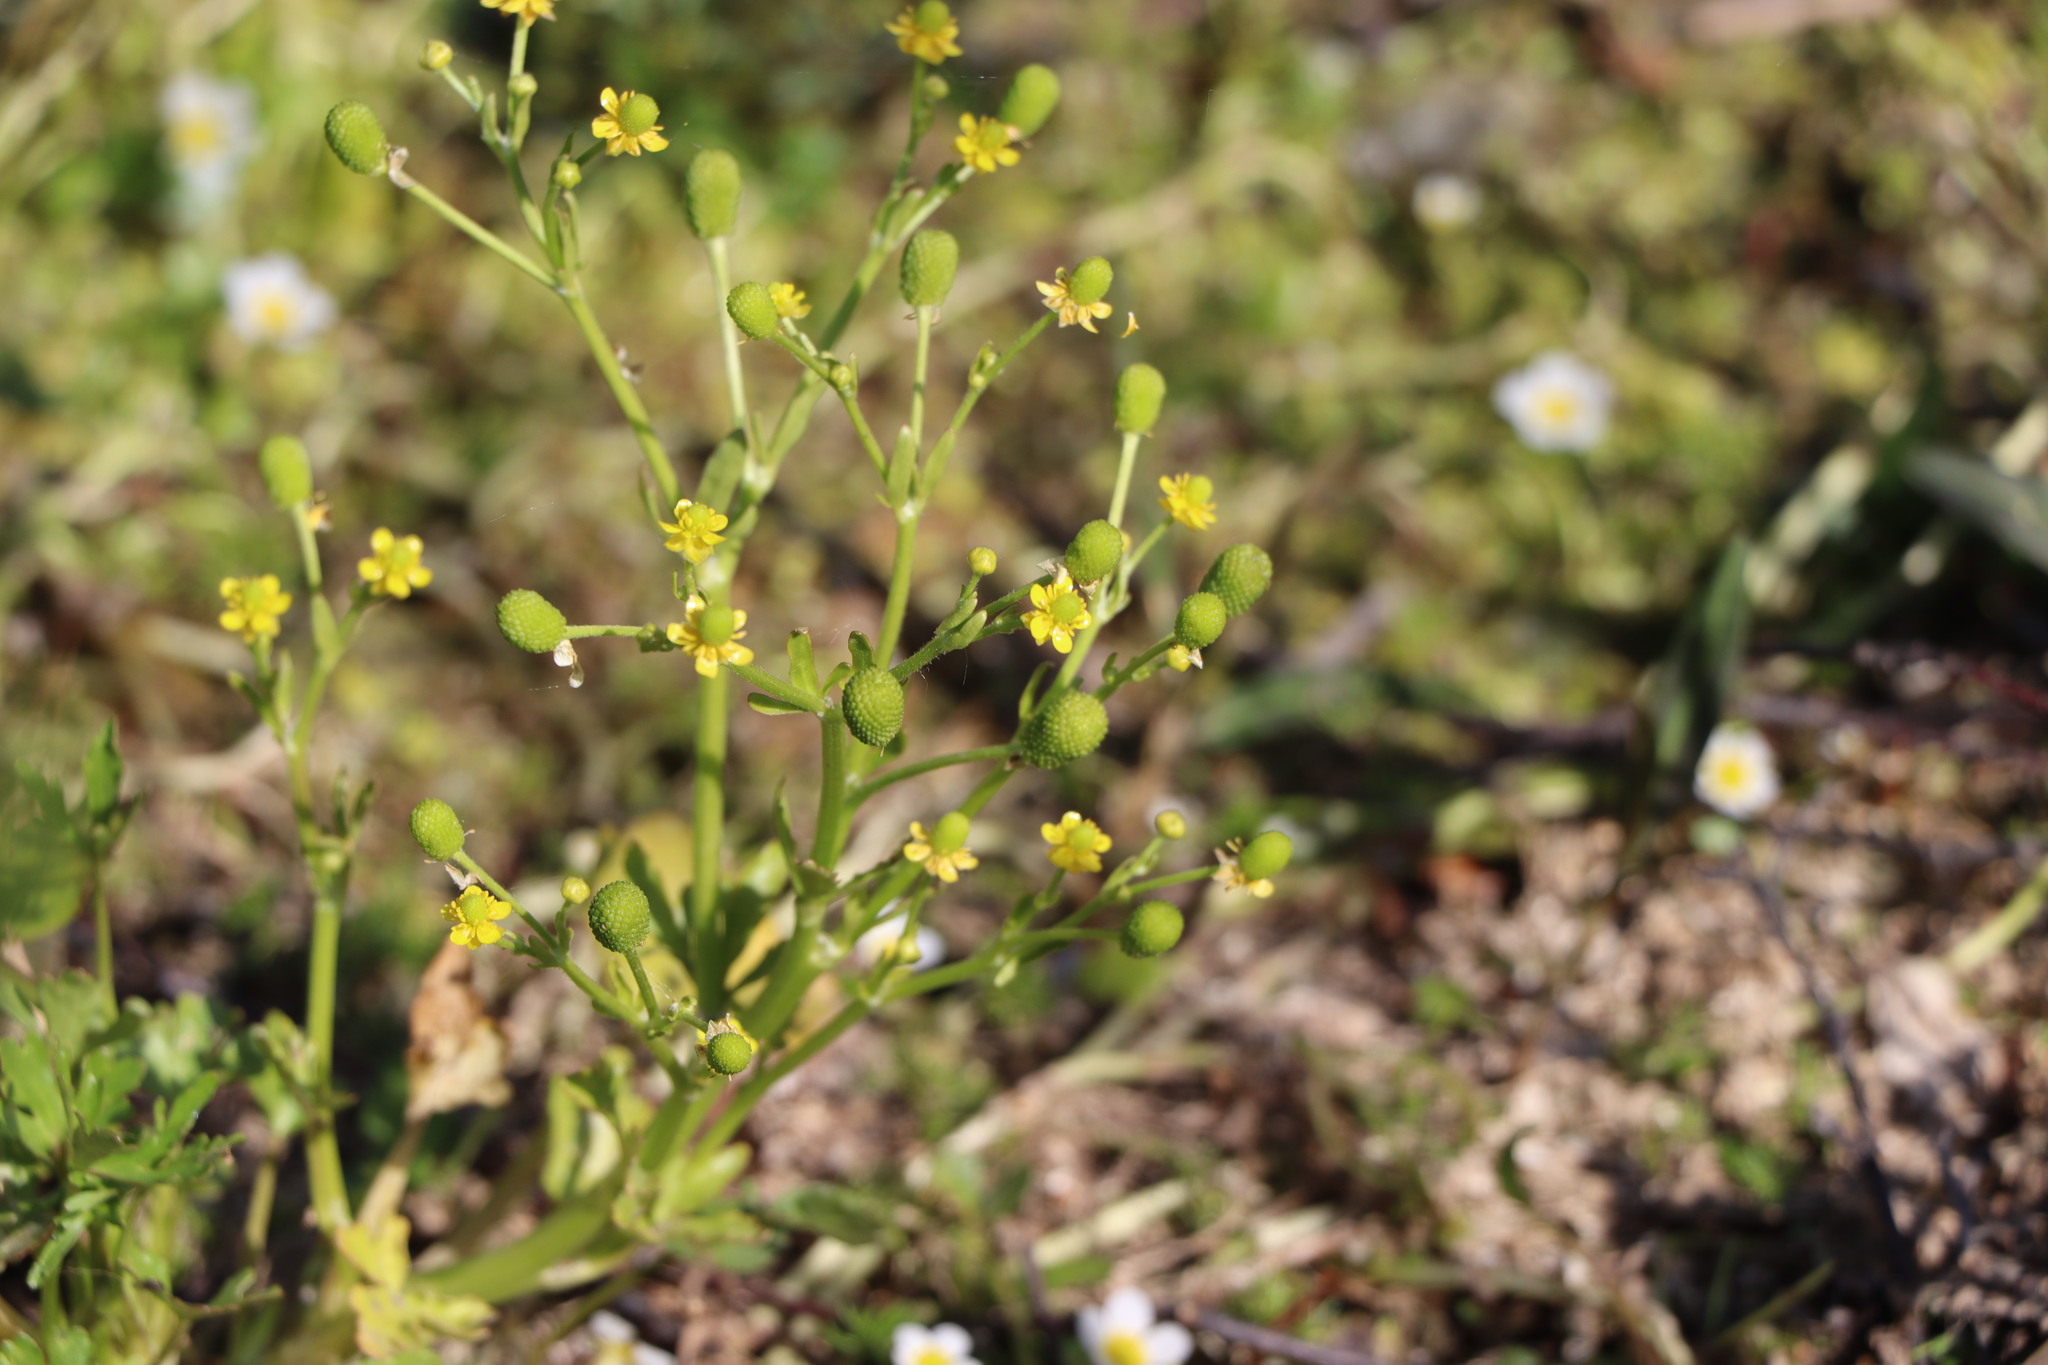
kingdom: Plantae
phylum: Tracheophyta
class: Magnoliopsida
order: Ranunculales
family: Ranunculaceae
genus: Ranunculus
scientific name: Ranunculus sceleratus
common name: Celery-leaved buttercup
